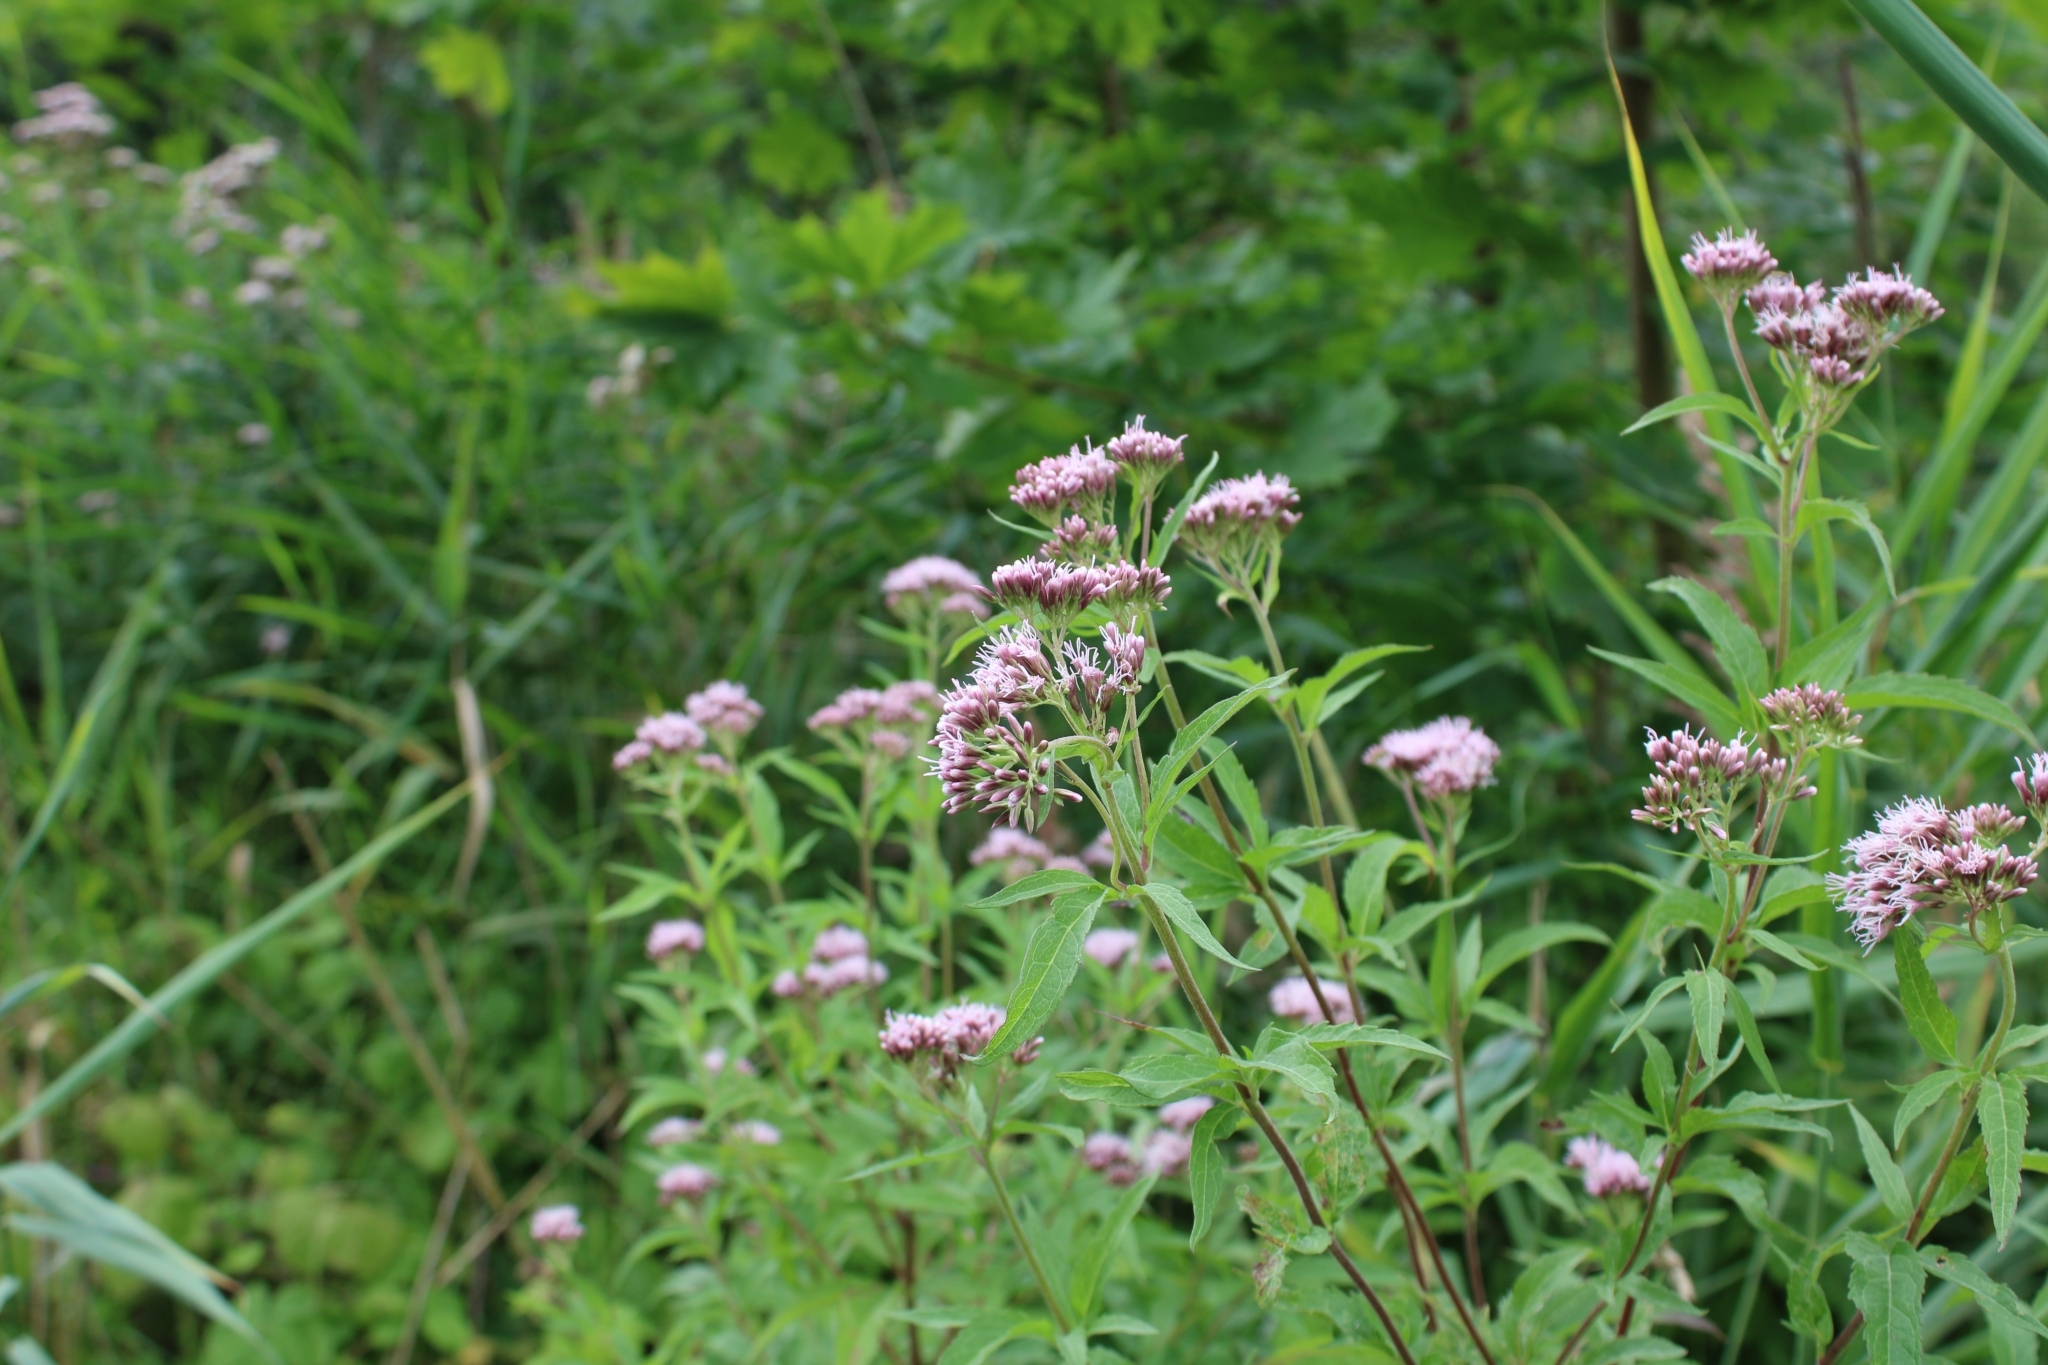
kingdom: Plantae
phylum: Tracheophyta
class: Magnoliopsida
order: Asterales
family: Asteraceae
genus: Eupatorium
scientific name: Eupatorium cannabinum
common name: Hemp-agrimony
